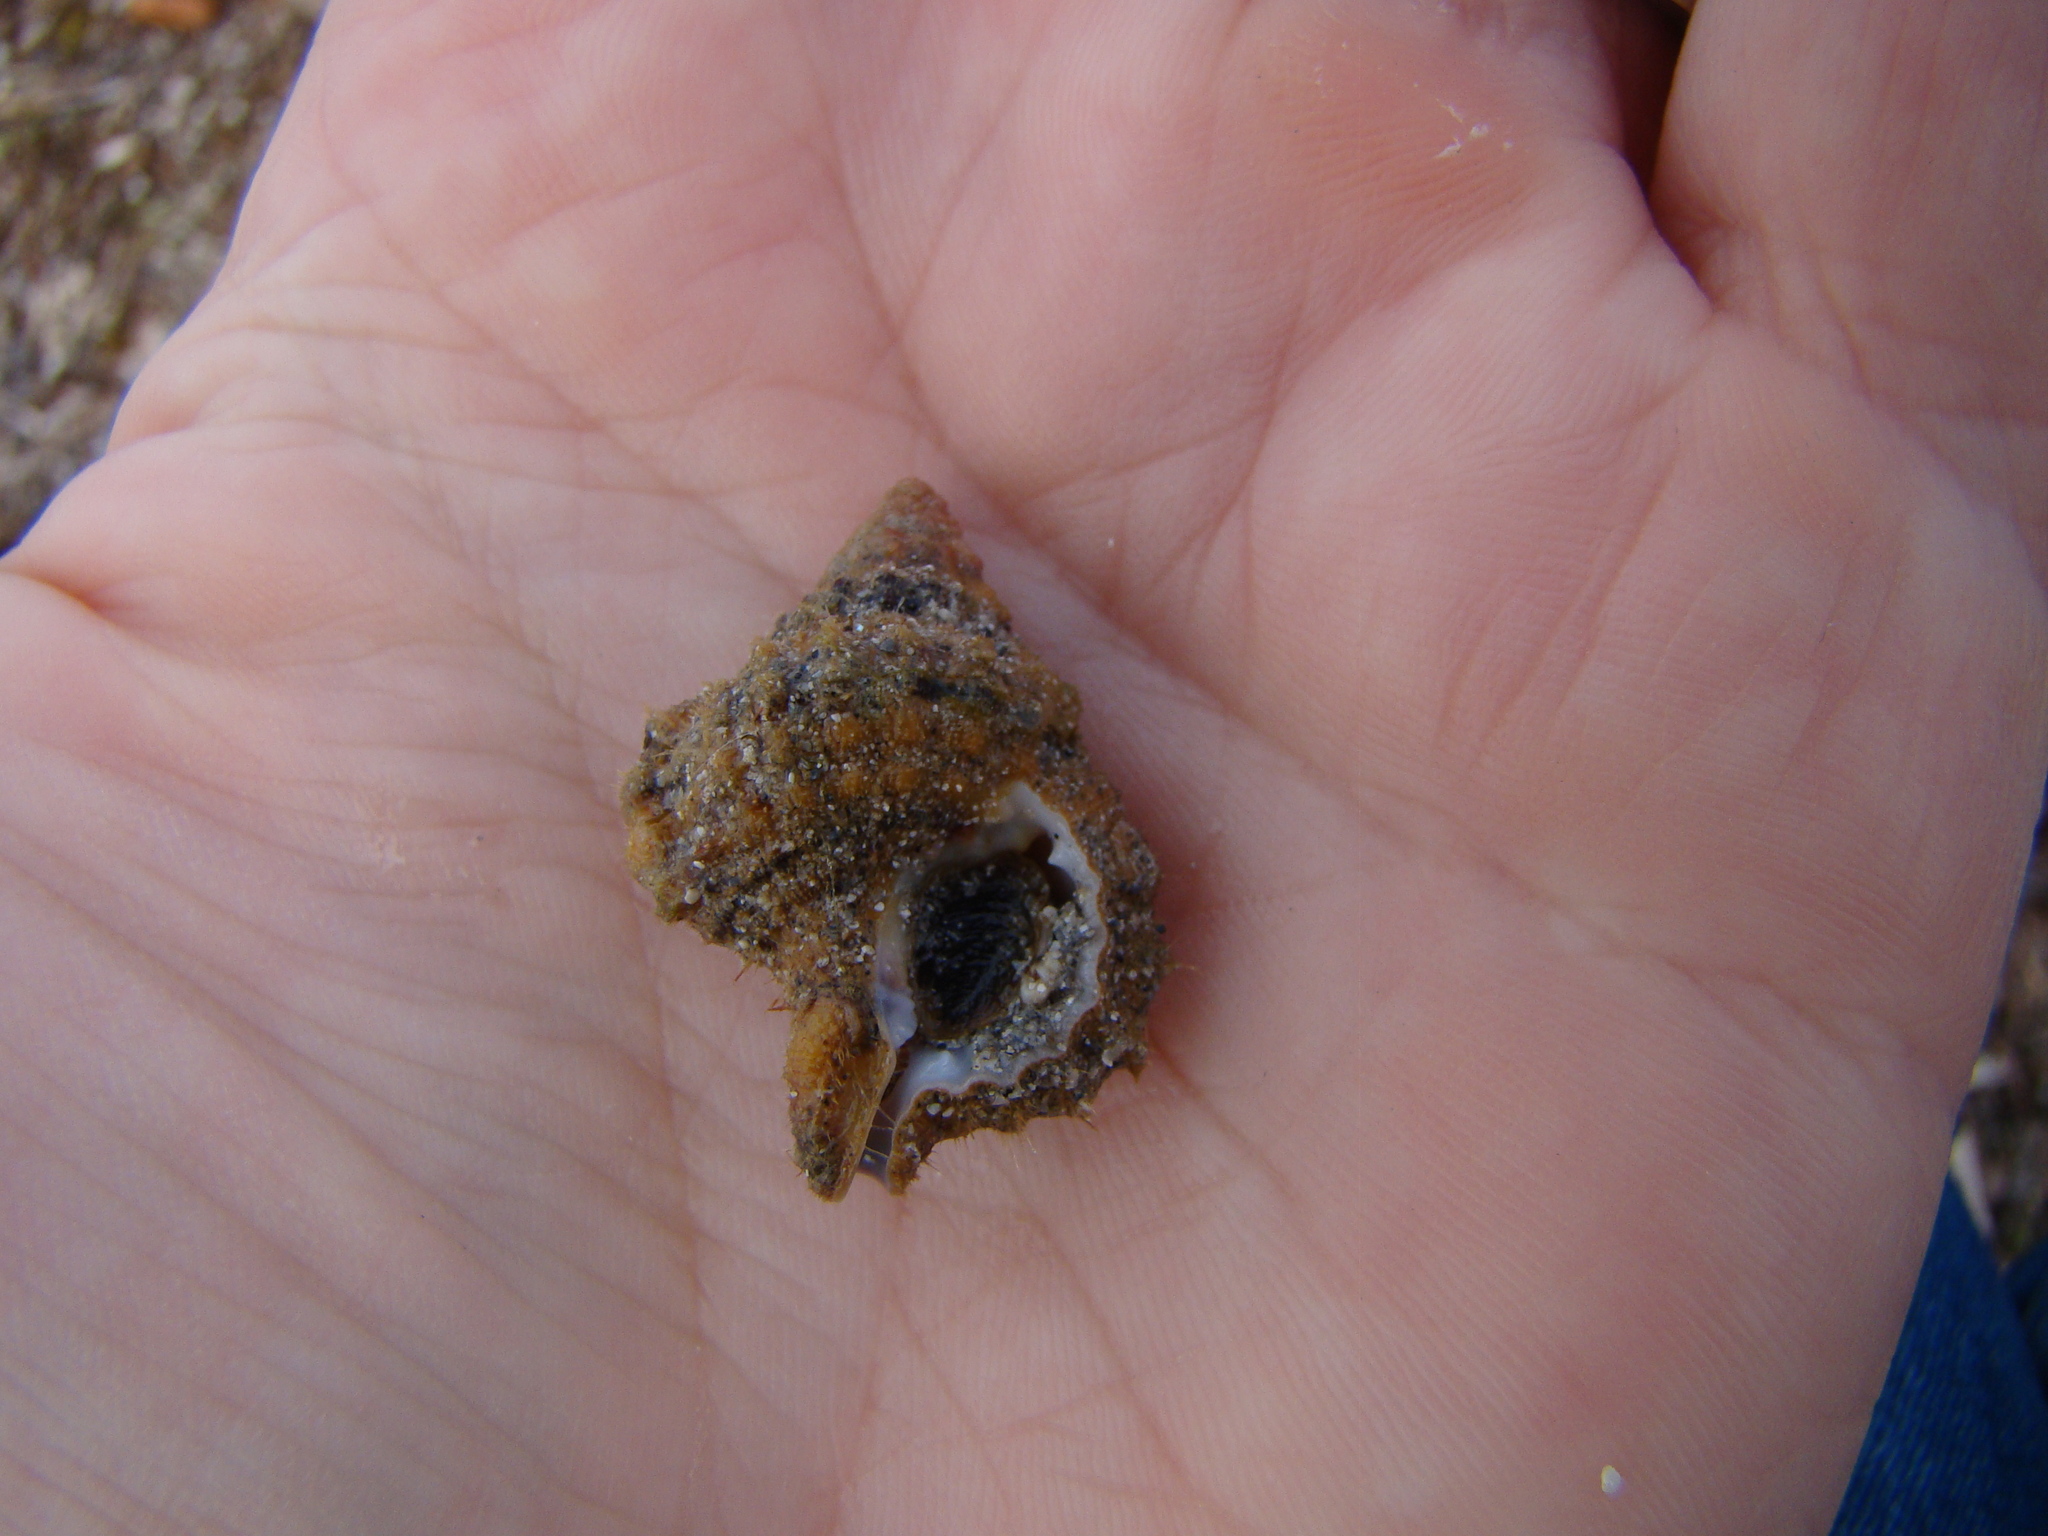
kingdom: Animalia
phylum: Mollusca
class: Gastropoda
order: Littorinimorpha
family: Cymatiidae
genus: Gyrineum
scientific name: Gyrineum gyrinum
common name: Tadpole triton
